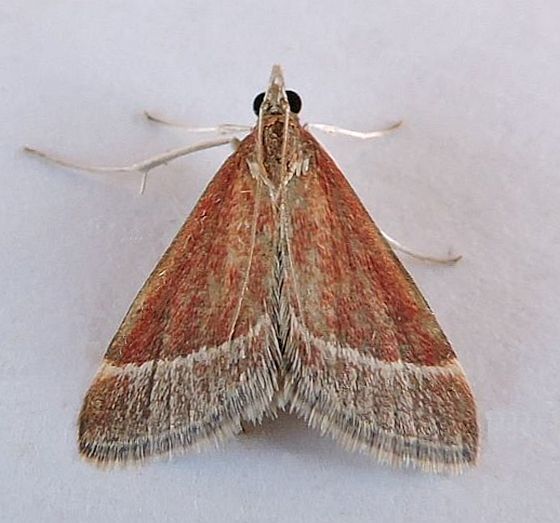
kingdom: Animalia
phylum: Arthropoda
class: Insecta
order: Lepidoptera
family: Crambidae
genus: Pyrausta
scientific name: Pyrausta lethalis
